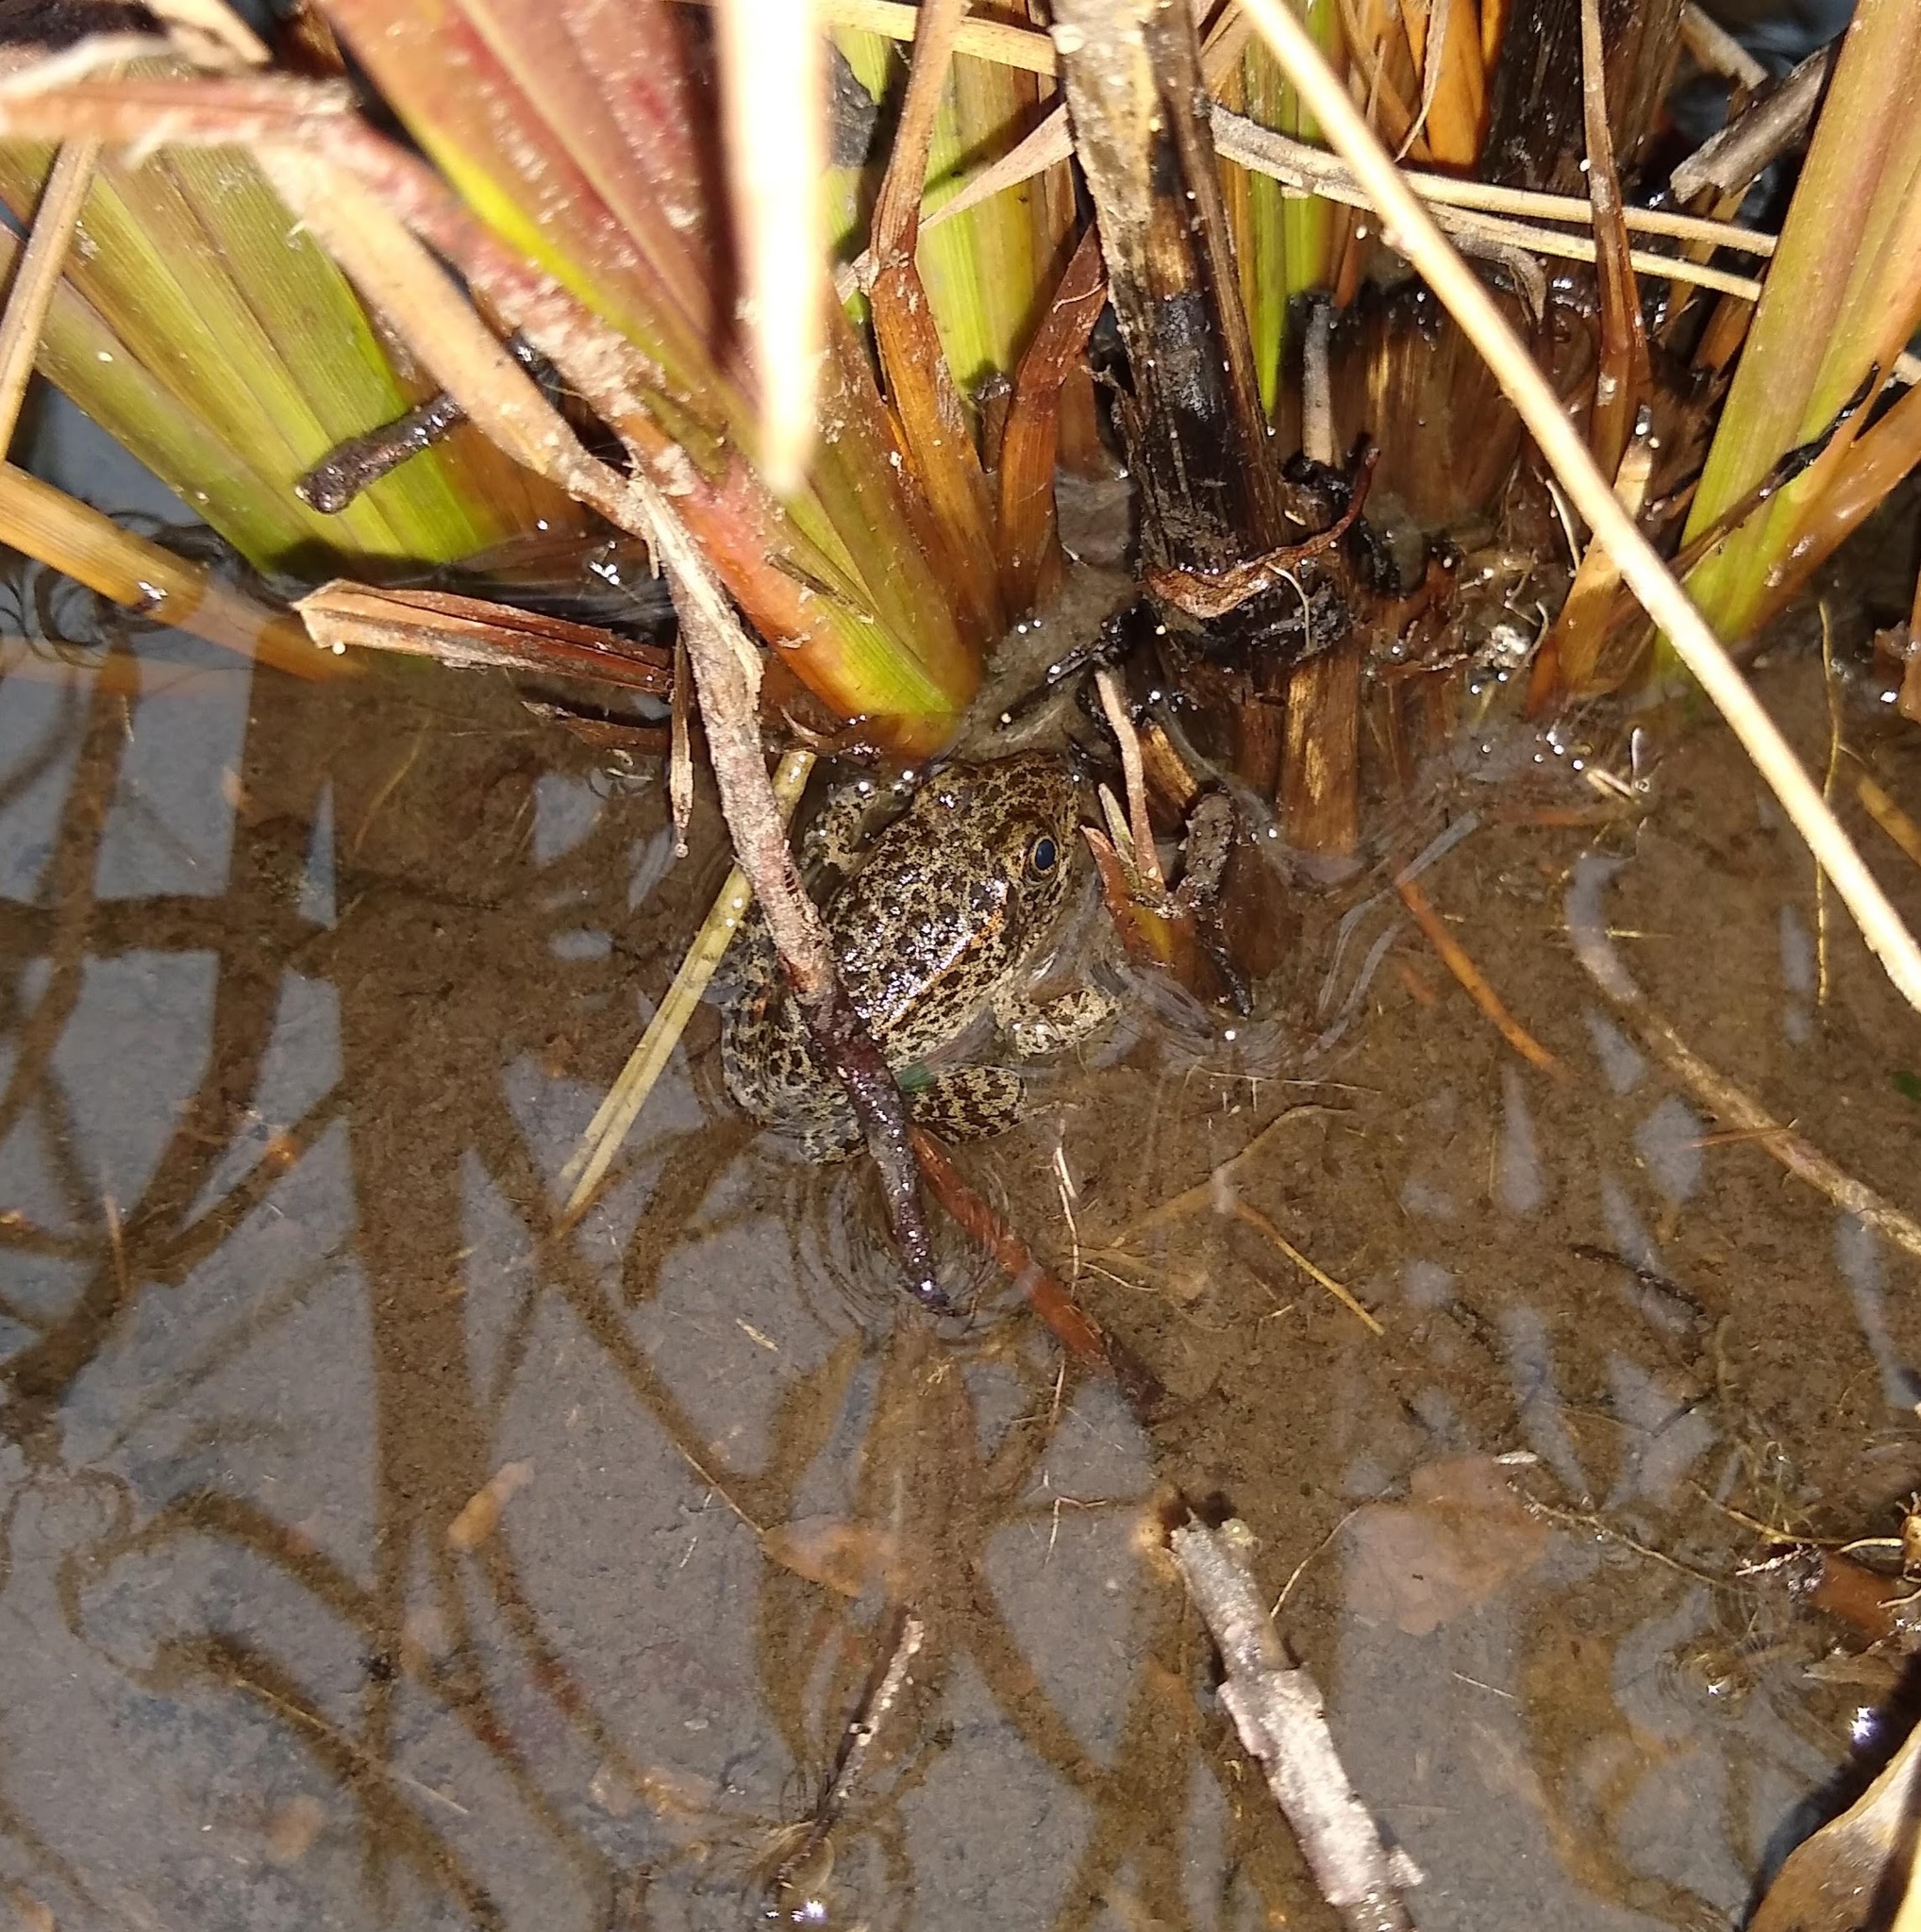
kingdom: Animalia
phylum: Chordata
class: Amphibia
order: Anura
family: Ranidae
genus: Lithobates
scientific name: Lithobates sevosus
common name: Dusky gopher frog
